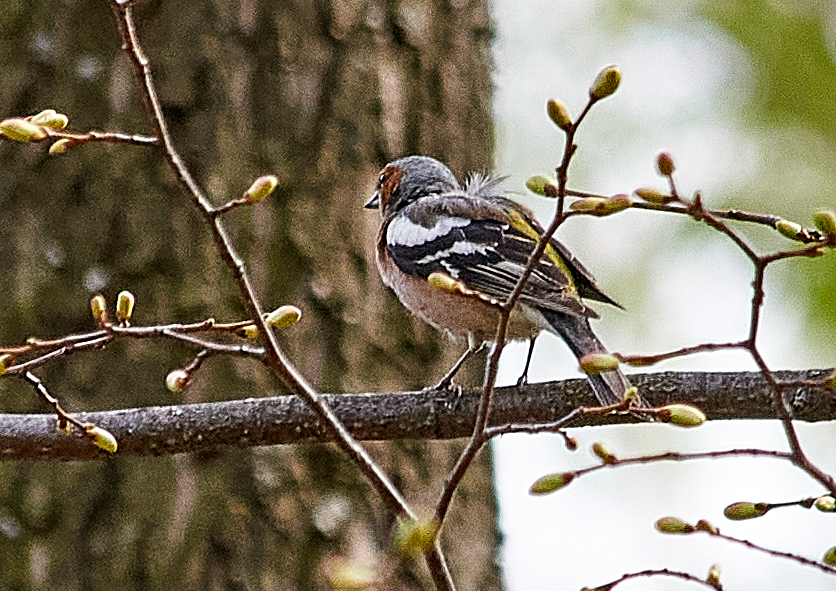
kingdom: Animalia
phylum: Chordata
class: Aves
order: Passeriformes
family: Fringillidae
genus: Fringilla
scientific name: Fringilla coelebs
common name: Common chaffinch
